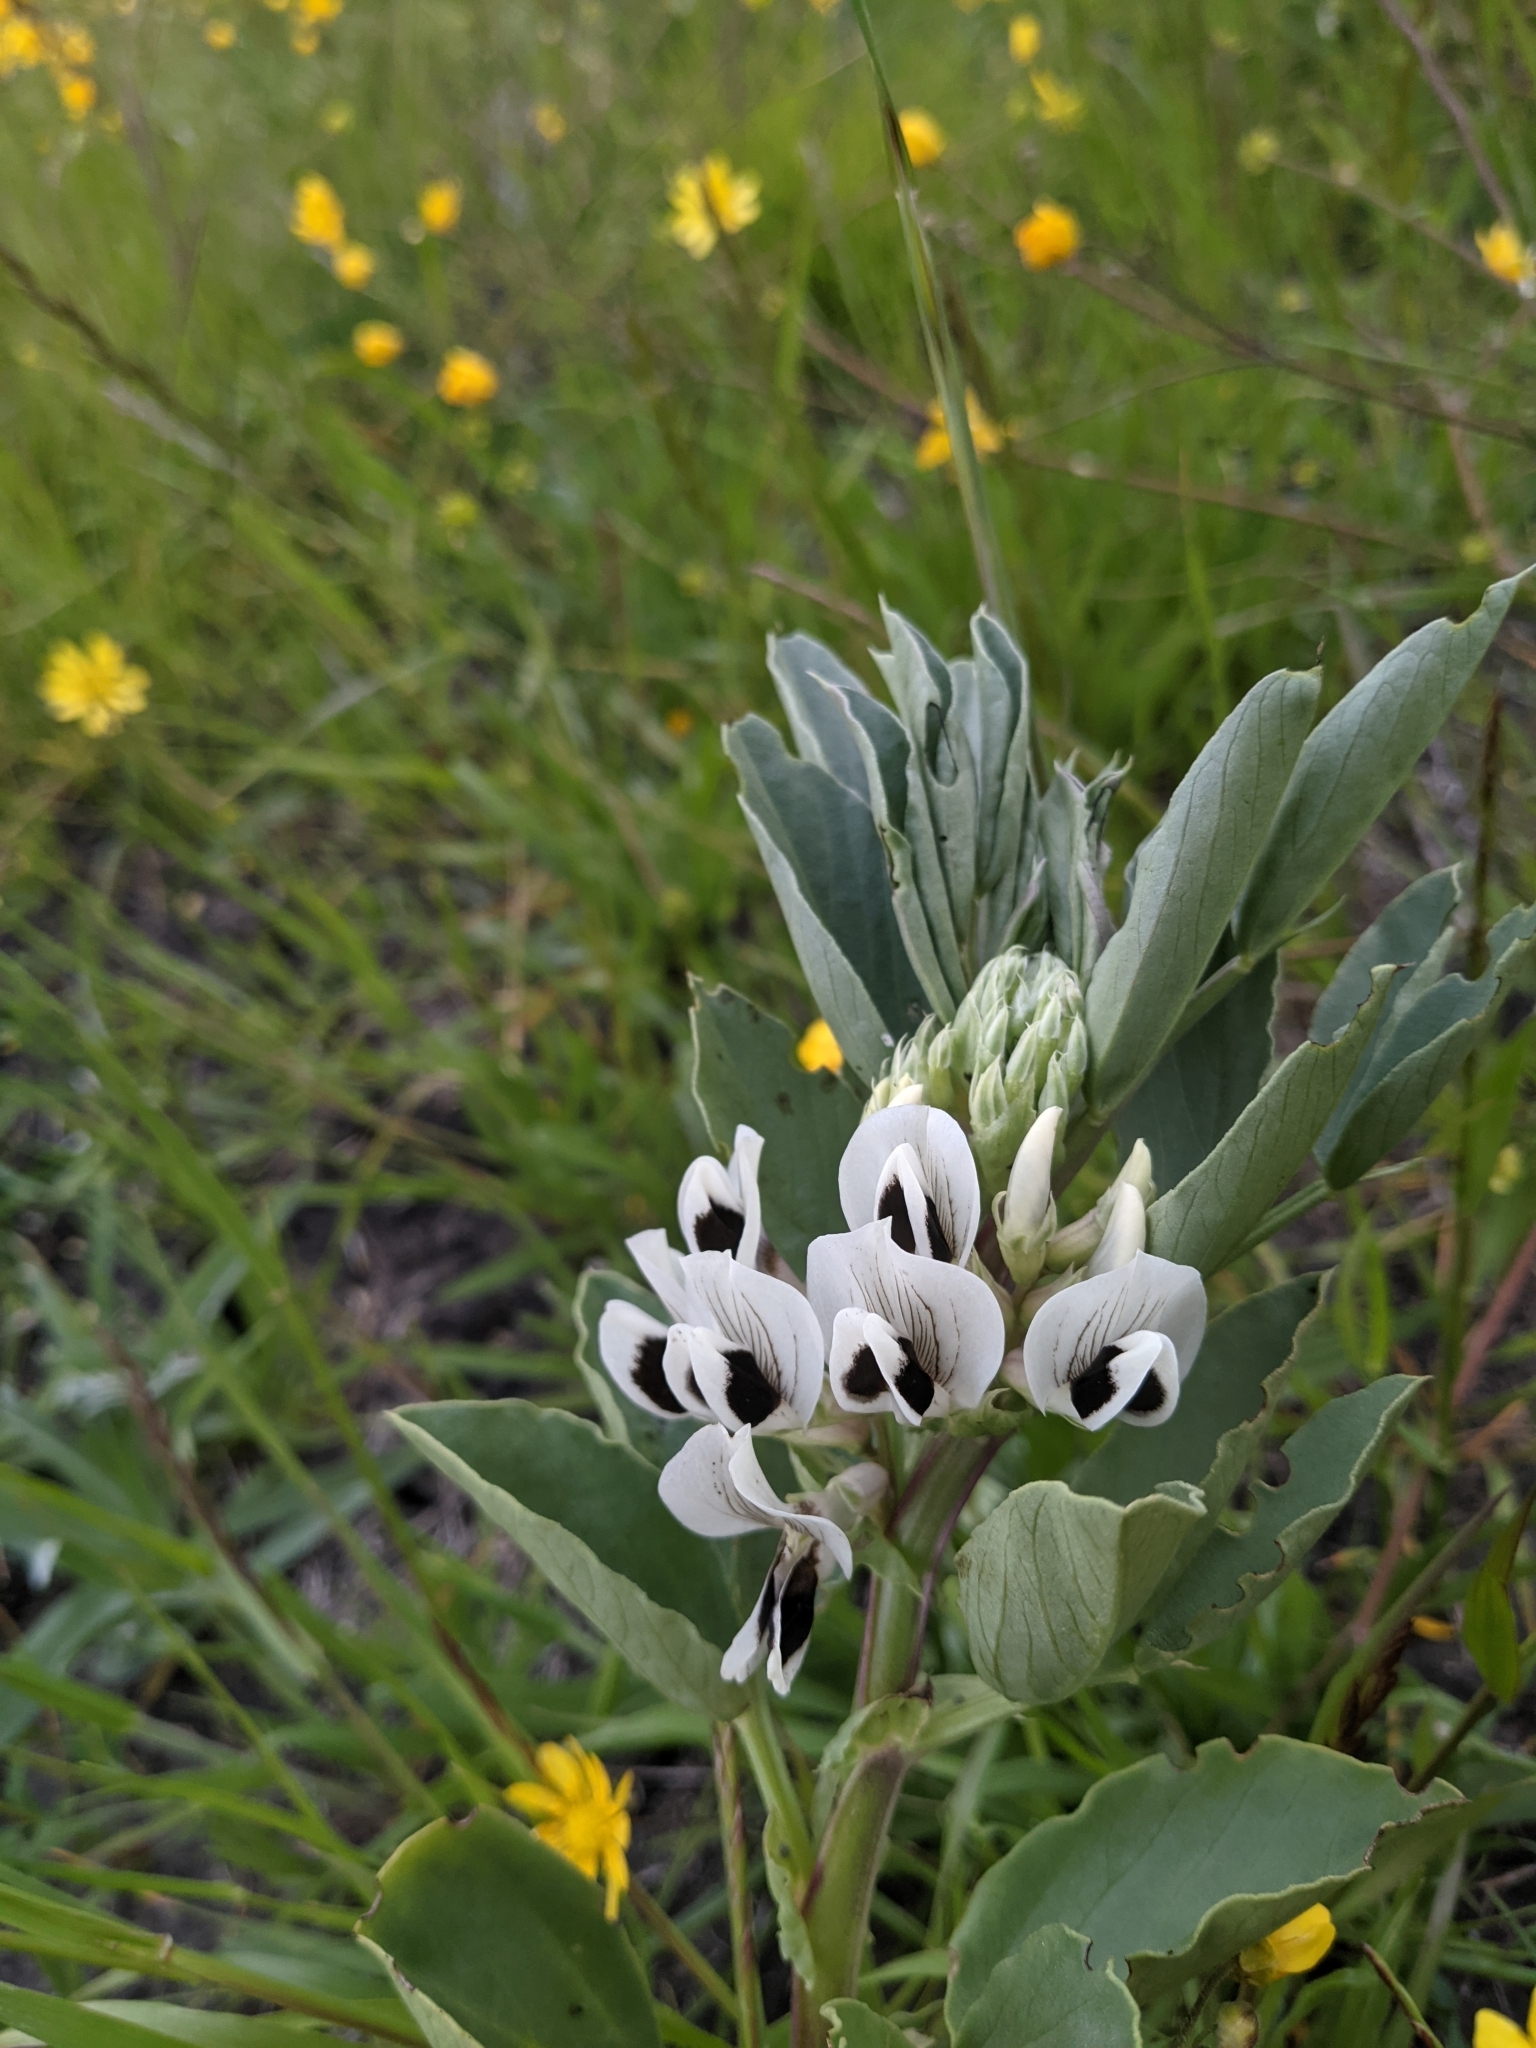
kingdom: Plantae
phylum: Tracheophyta
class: Magnoliopsida
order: Fabales
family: Fabaceae
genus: Vicia
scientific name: Vicia faba
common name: Broad bean
